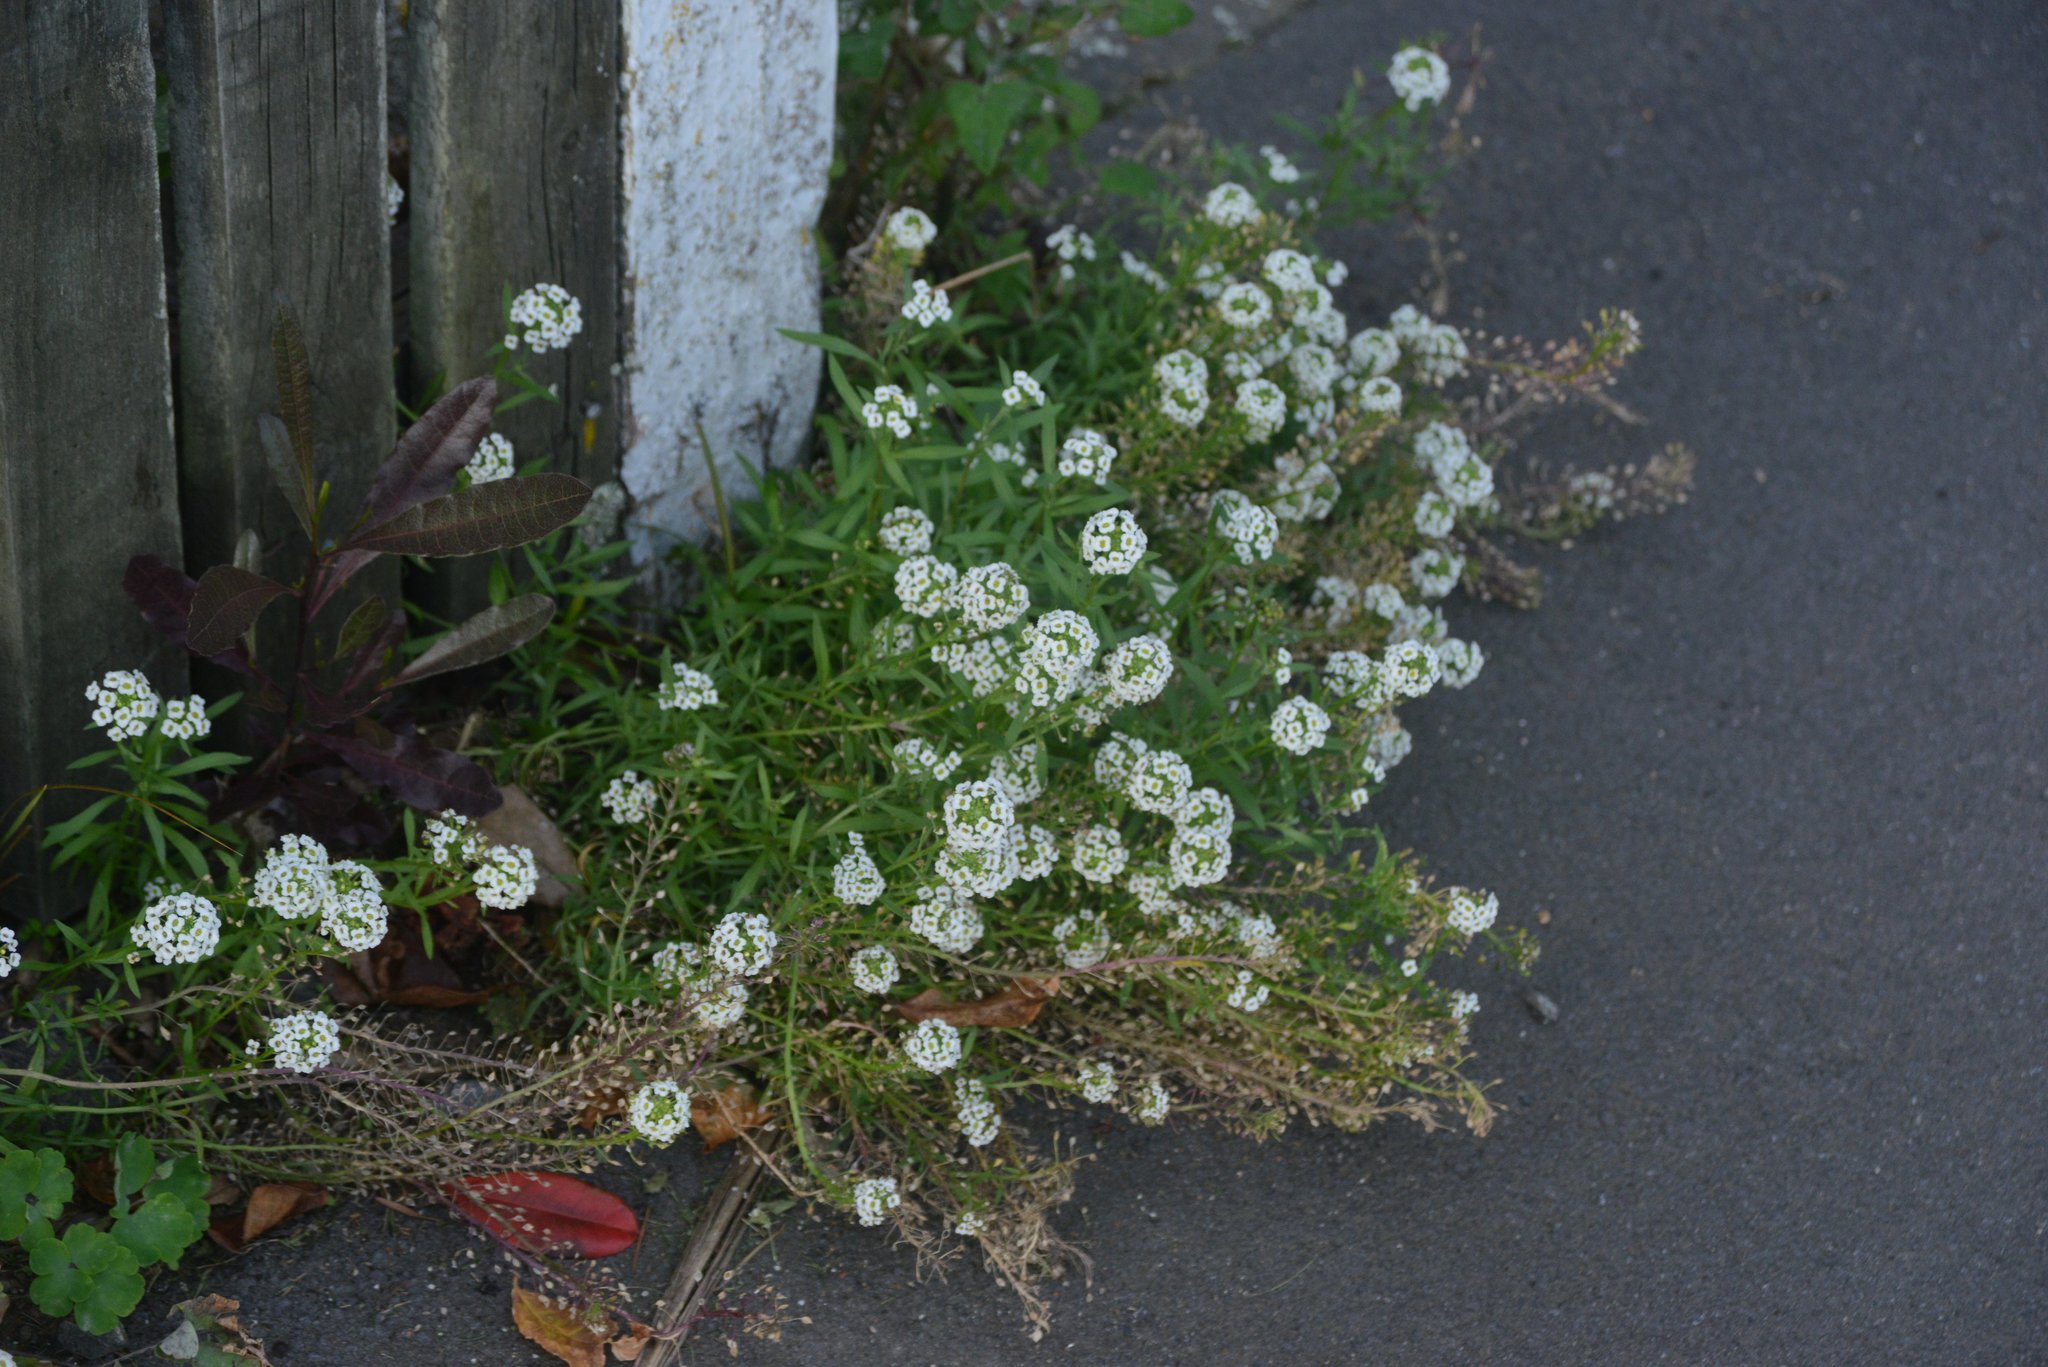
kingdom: Plantae
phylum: Tracheophyta
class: Magnoliopsida
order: Brassicales
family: Brassicaceae
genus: Lobularia
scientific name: Lobularia maritima
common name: Sweet alison
